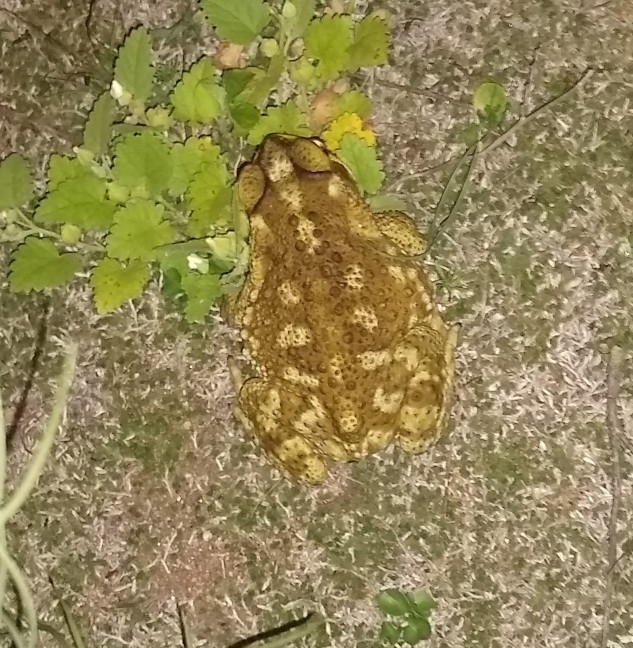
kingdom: Animalia
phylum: Chordata
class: Amphibia
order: Anura
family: Bufonidae
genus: Rhinella
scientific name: Rhinella arenarum
